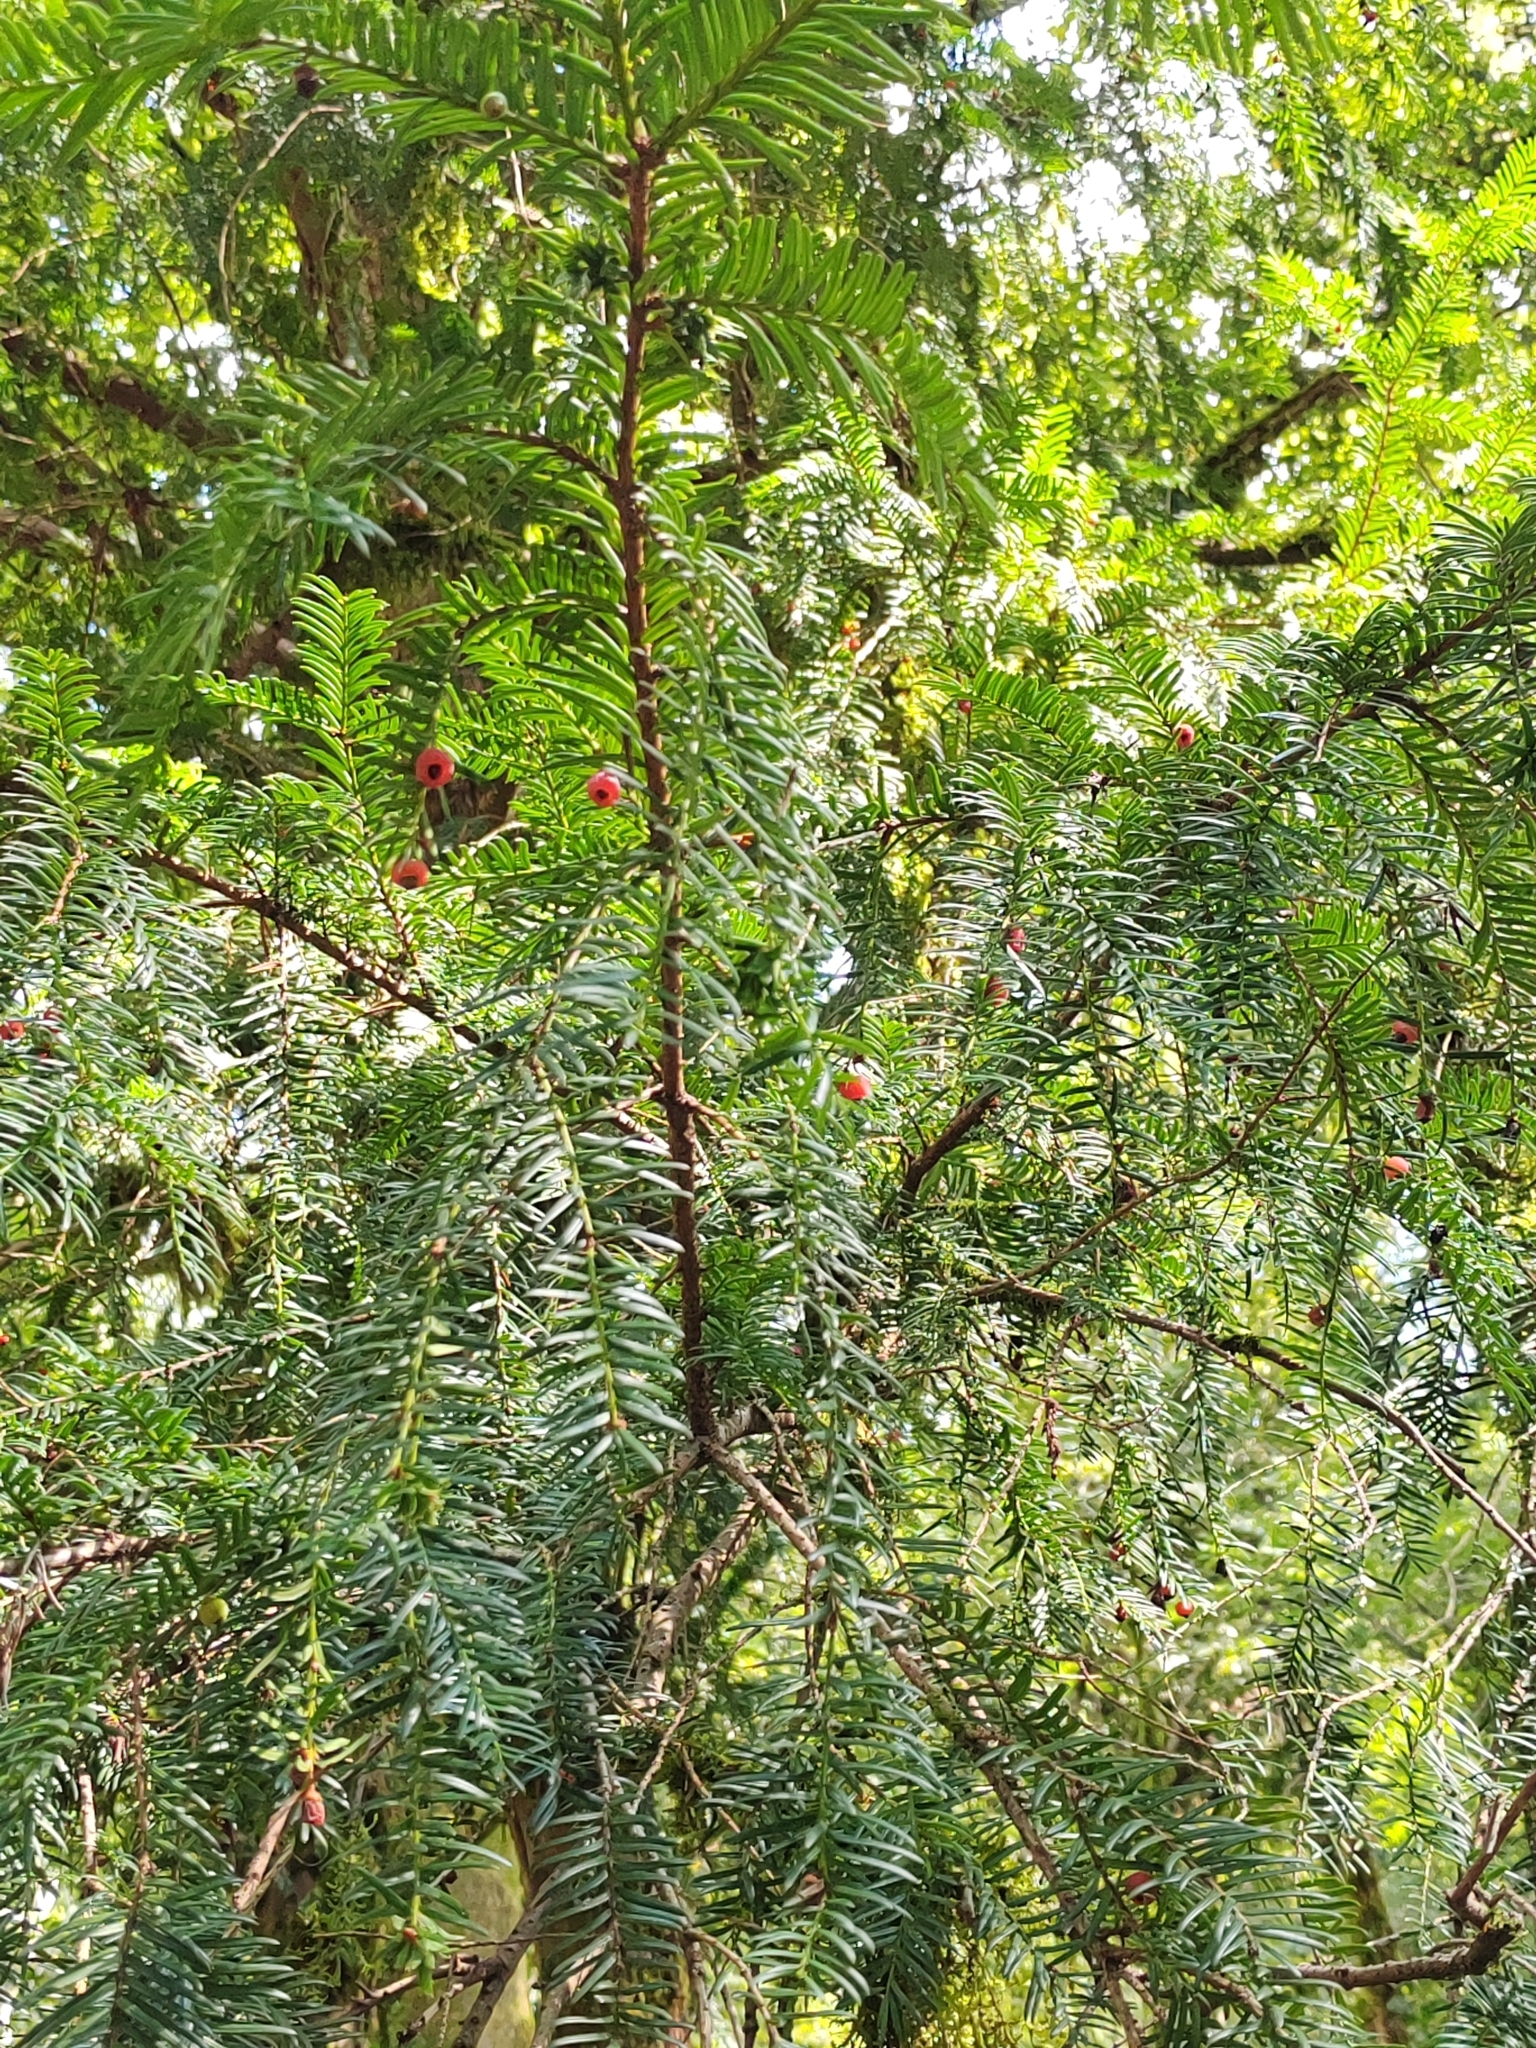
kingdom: Plantae
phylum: Tracheophyta
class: Pinopsida
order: Pinales
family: Taxaceae
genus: Taxus
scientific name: Taxus baccata
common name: Yew
